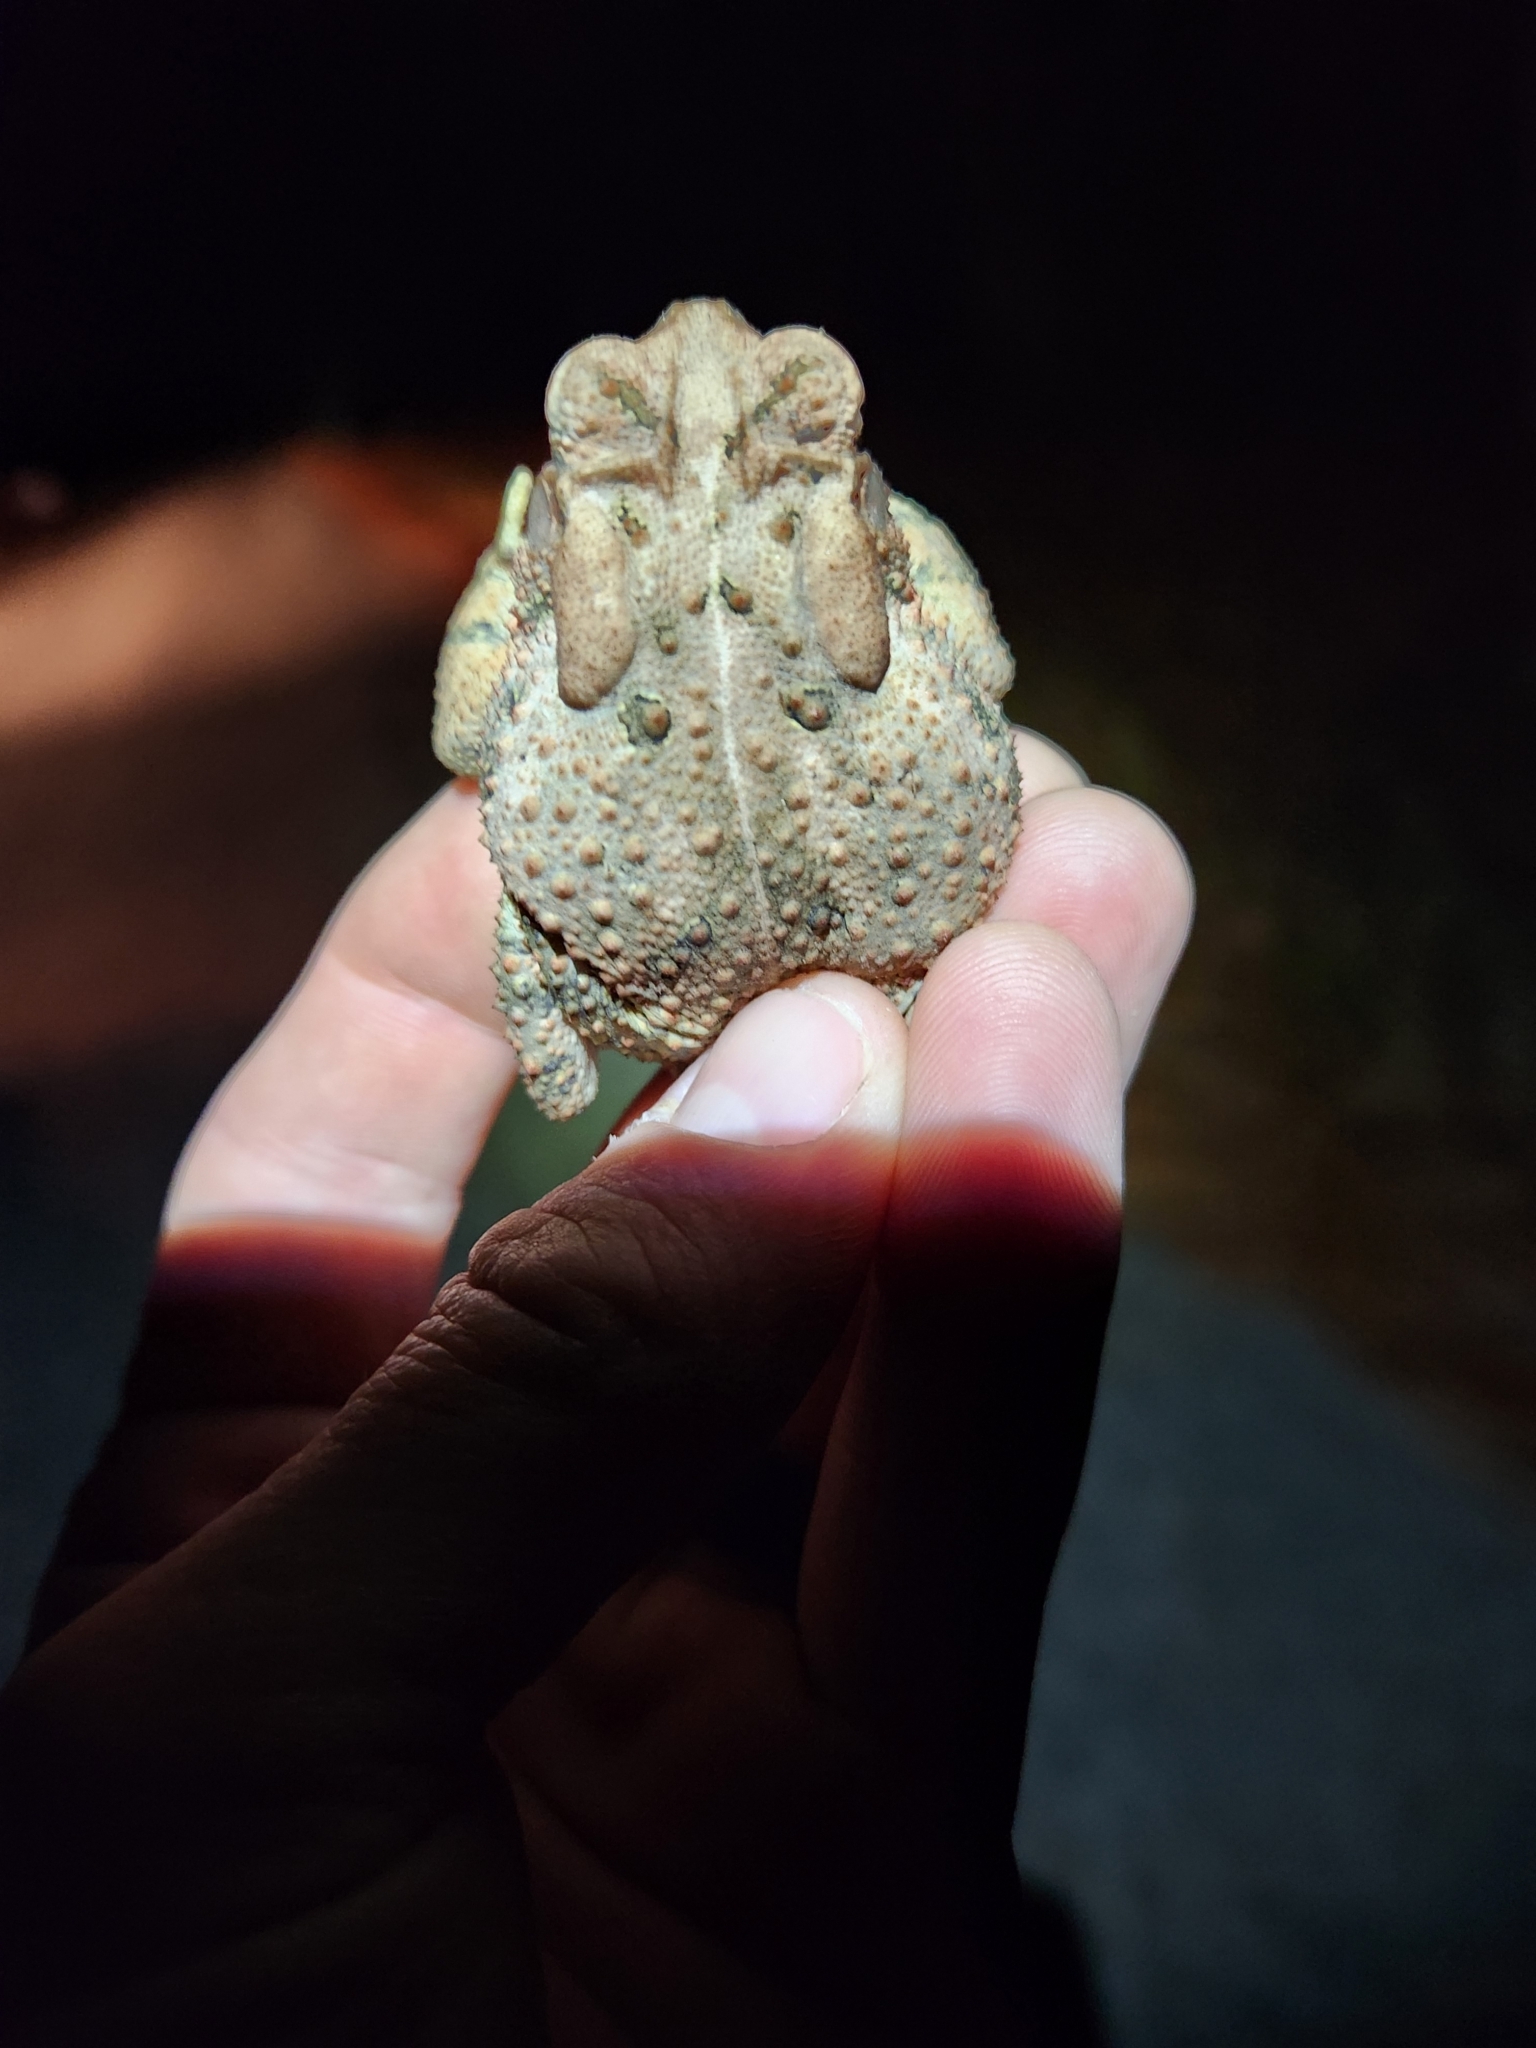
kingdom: Animalia
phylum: Chordata
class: Amphibia
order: Anura
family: Bufonidae
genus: Anaxyrus
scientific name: Anaxyrus americanus
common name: American toad
